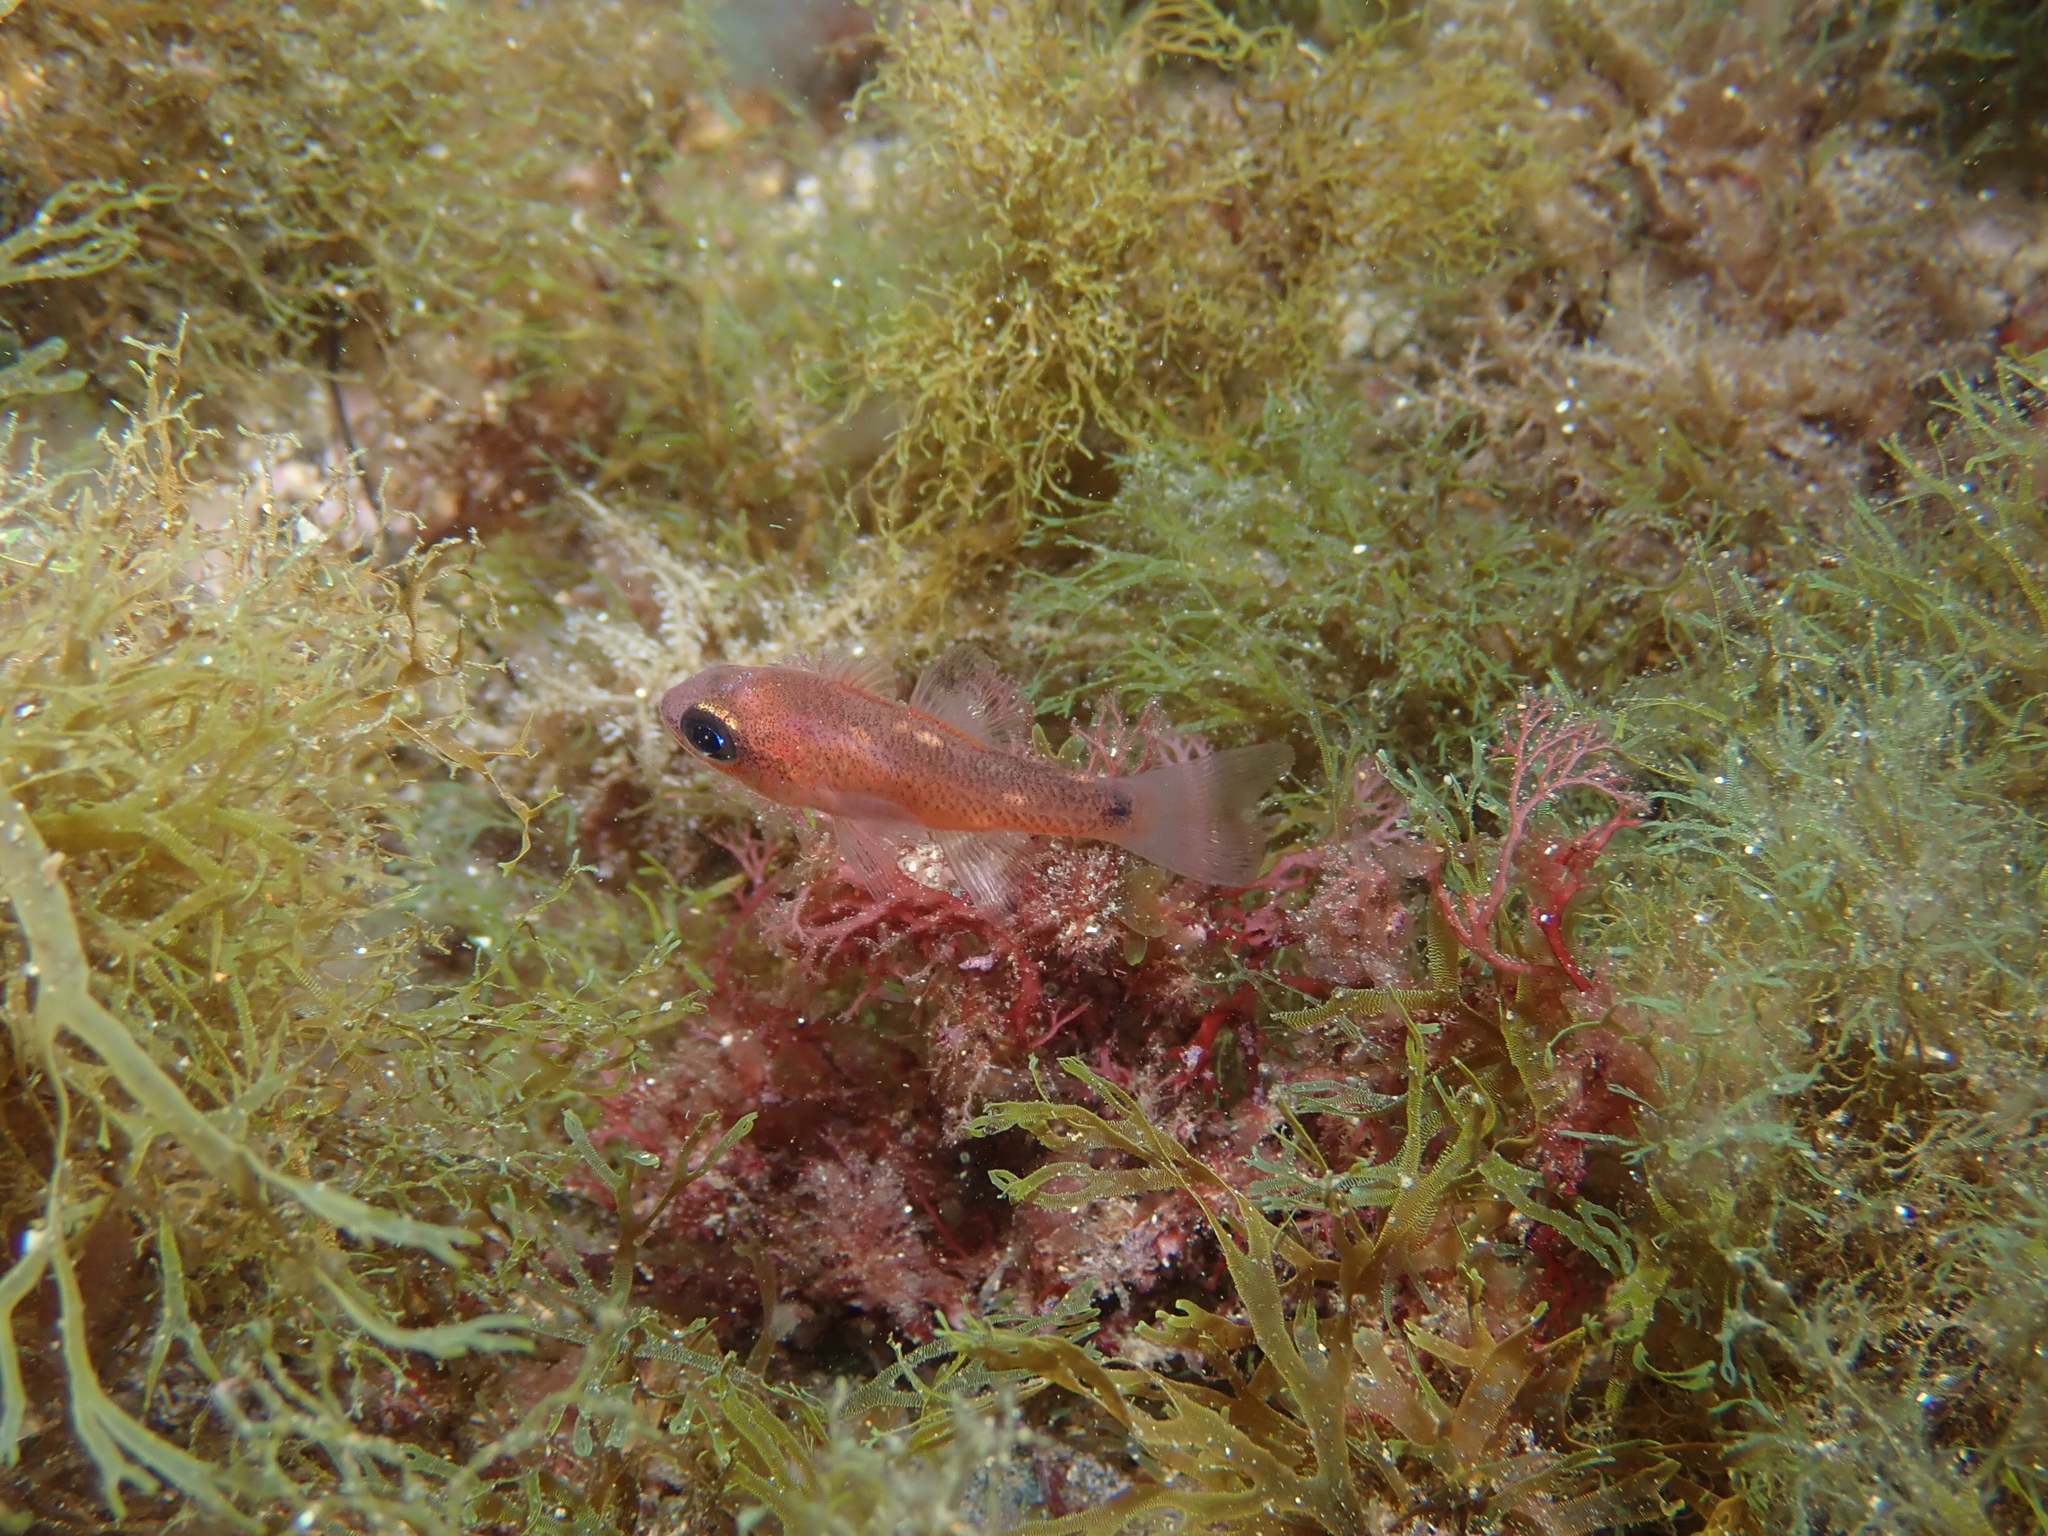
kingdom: Animalia
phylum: Chordata
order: Perciformes
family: Apogonidae
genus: Apogon
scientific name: Apogon imberbis
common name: Cardinal fish
